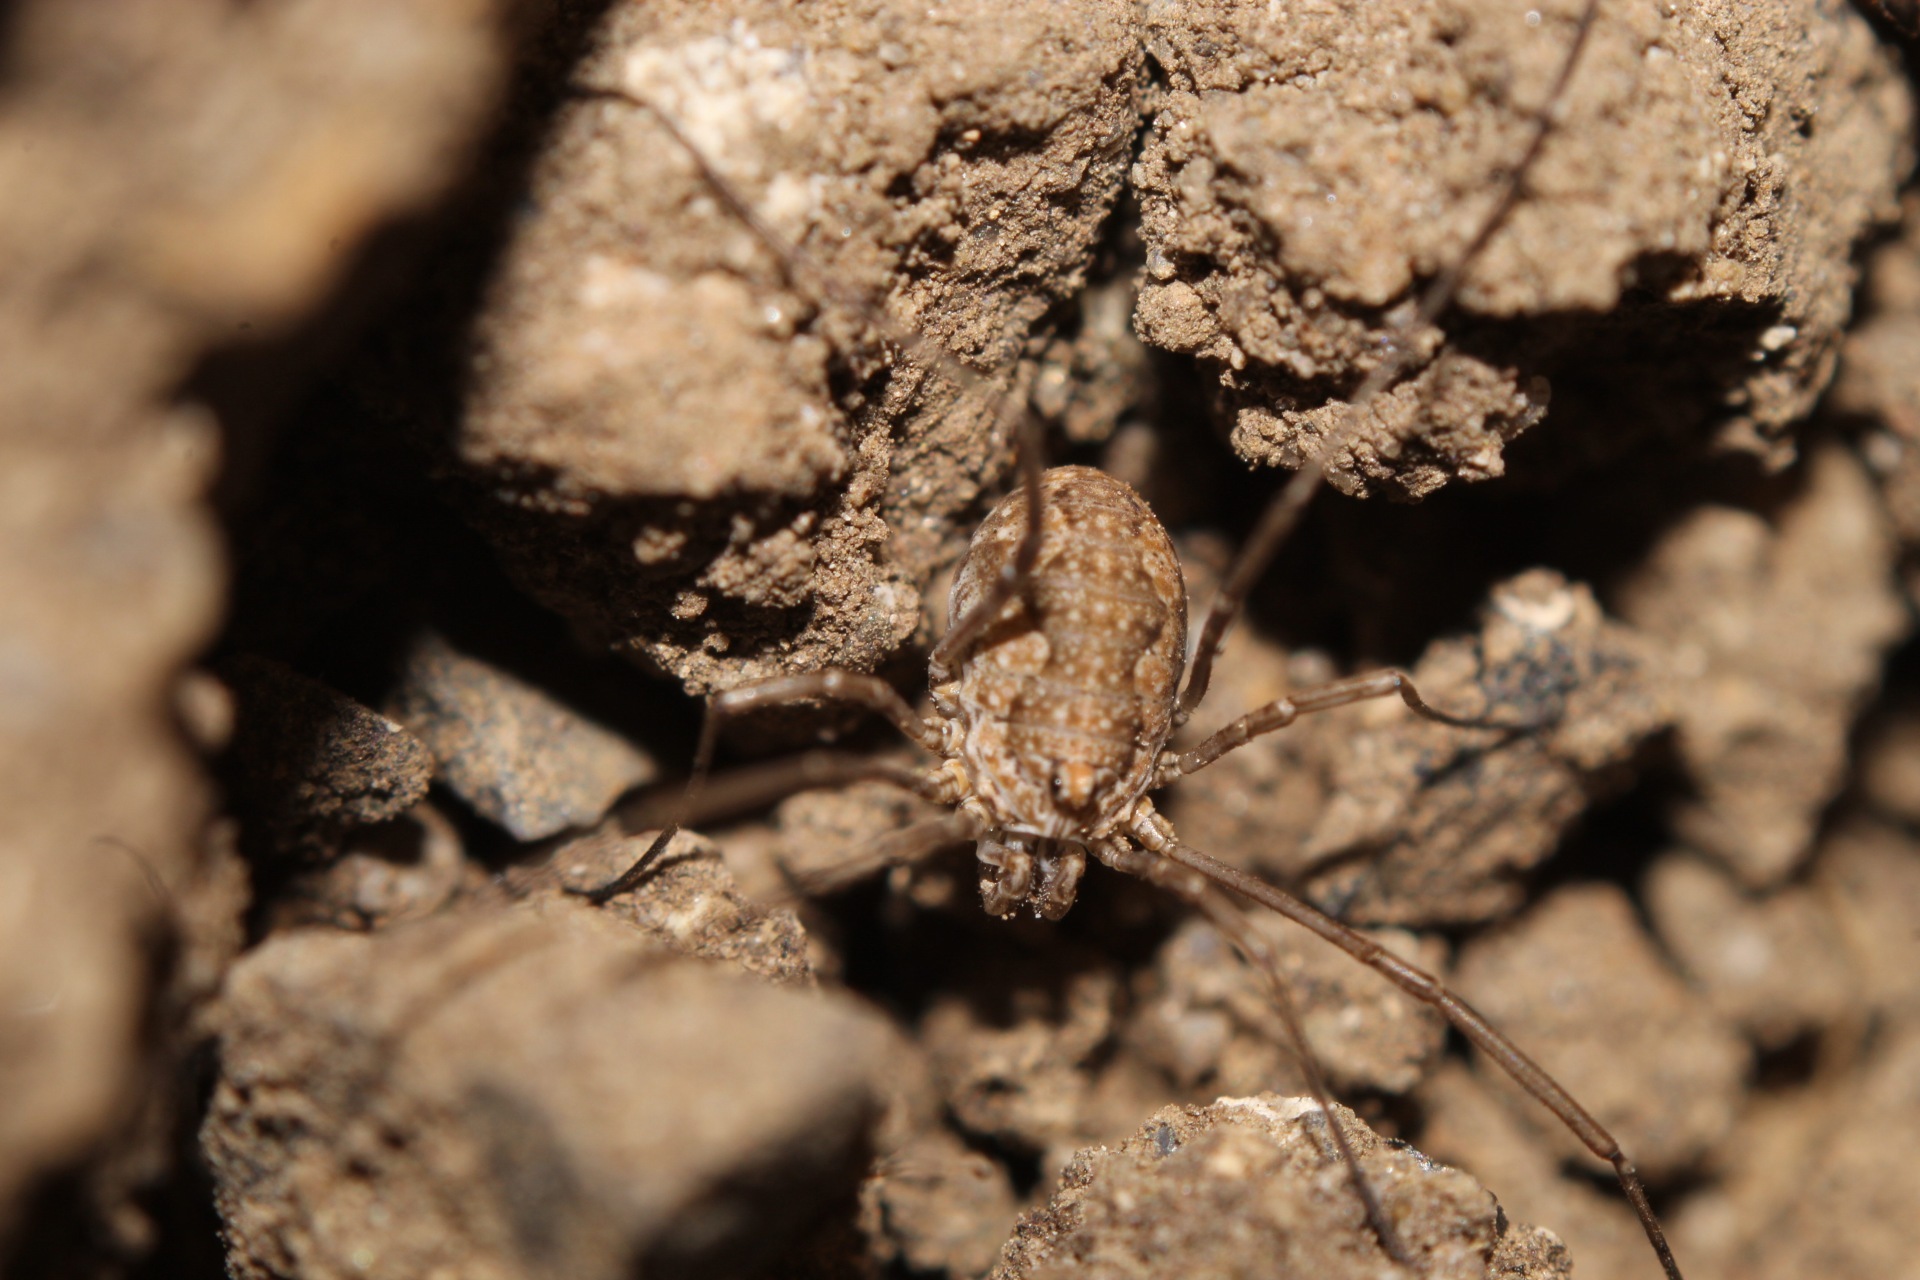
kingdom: Animalia
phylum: Arthropoda
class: Arachnida
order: Opiliones
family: Phalangiidae
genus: Phalangium
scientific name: Phalangium opilio
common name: Daddy longleg
